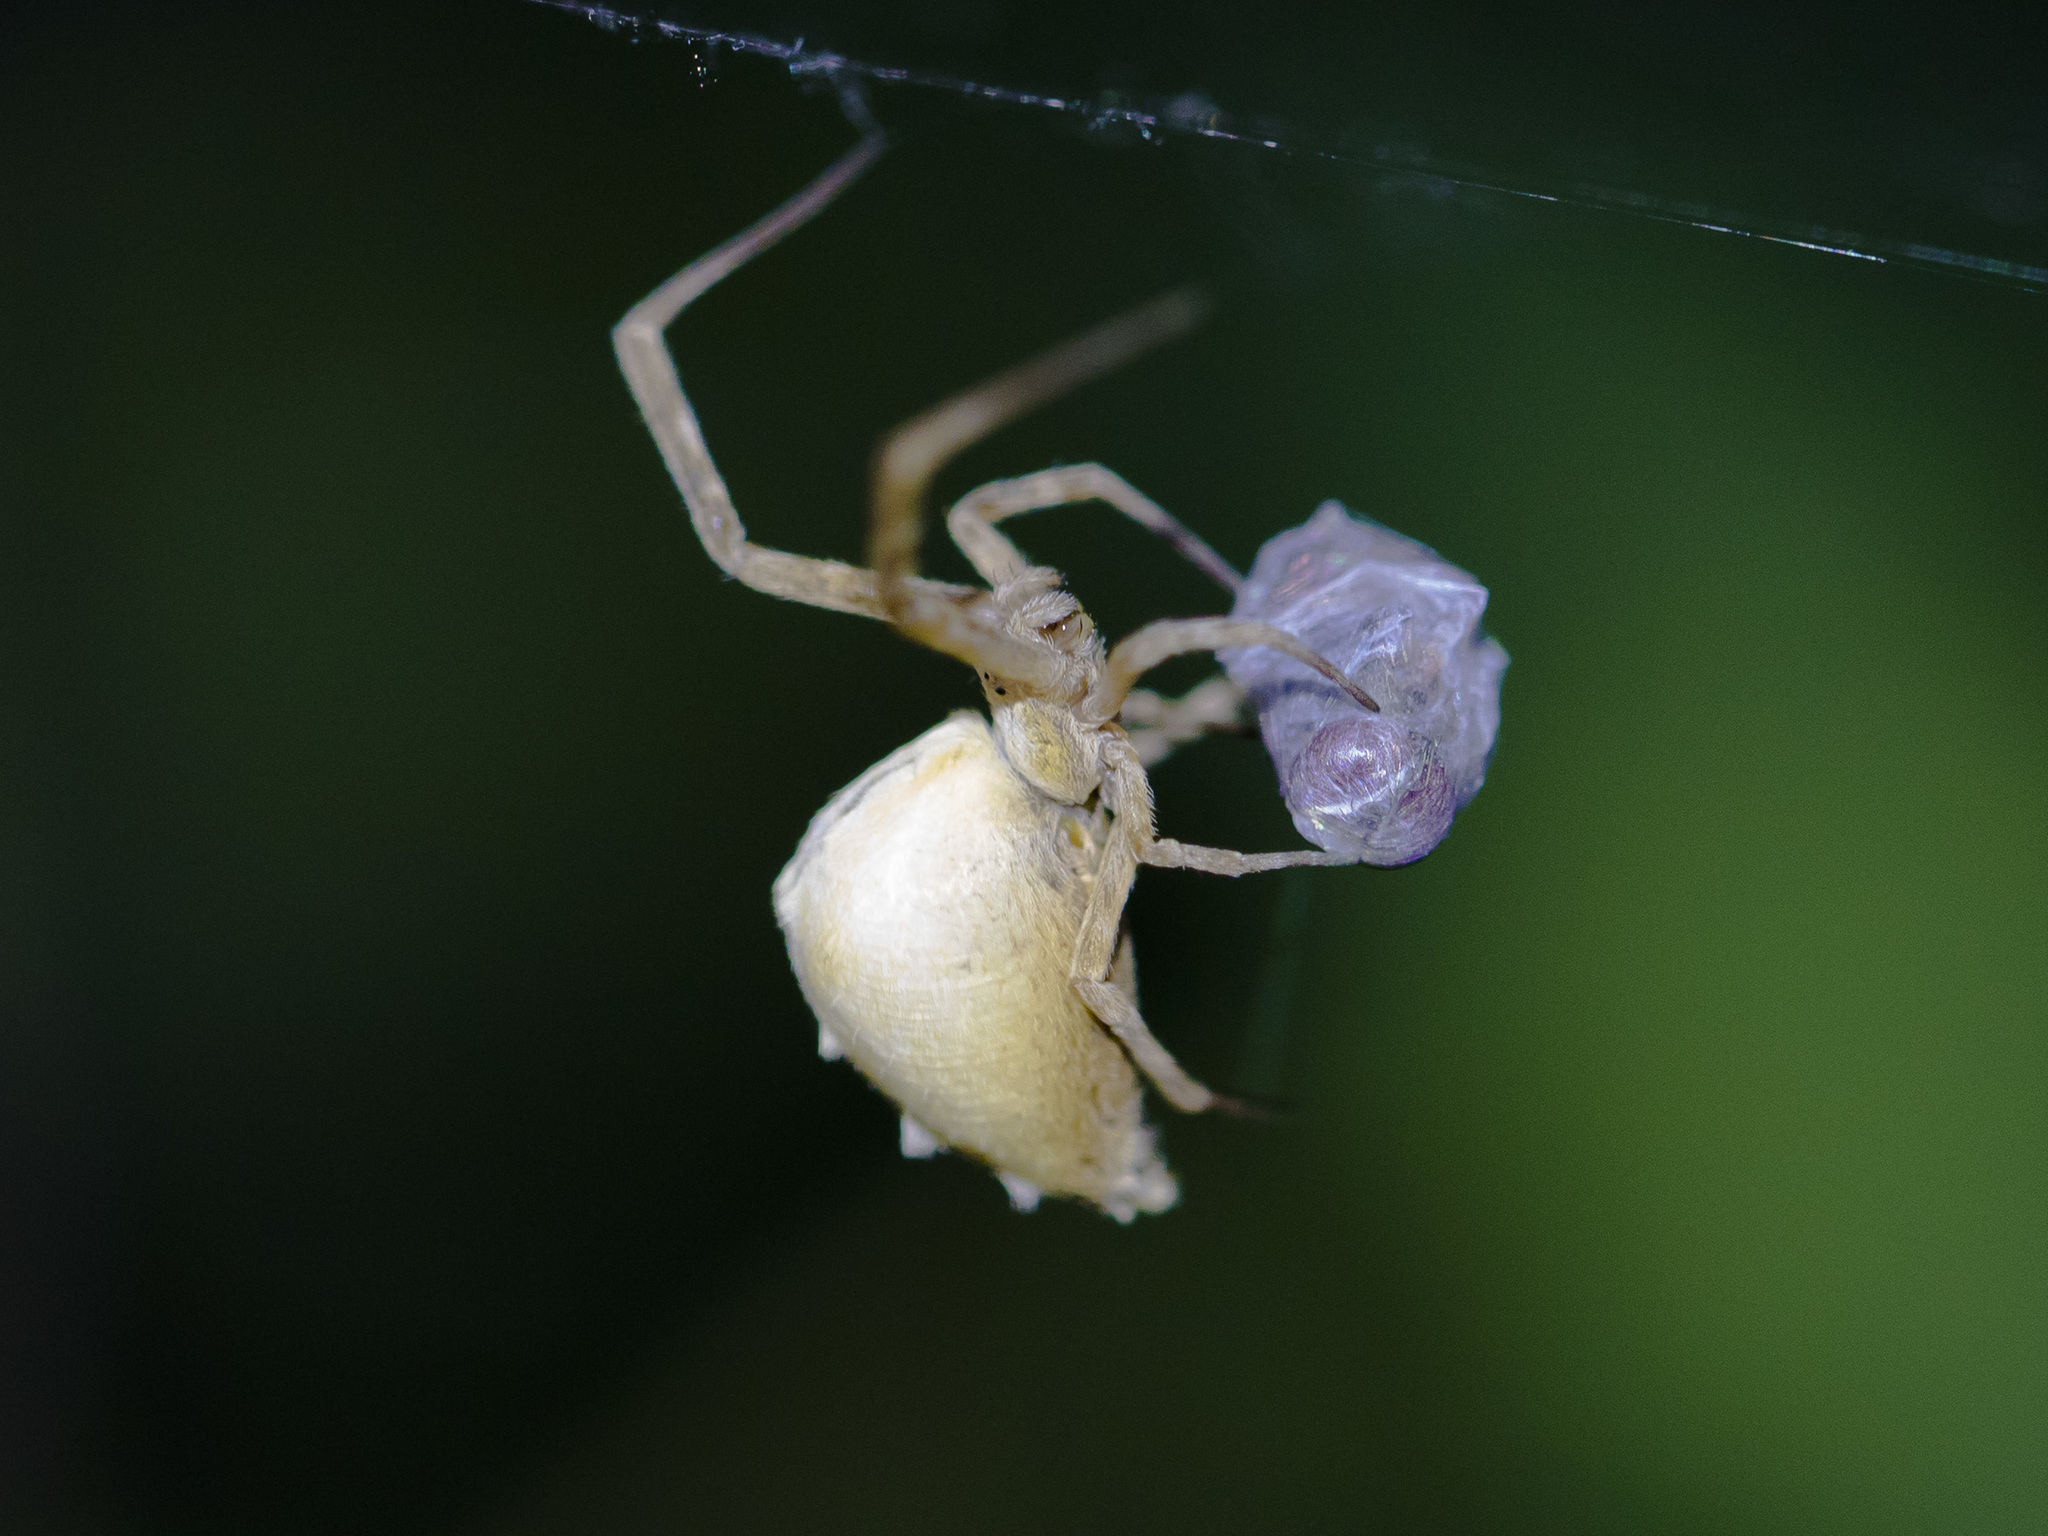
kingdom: Animalia
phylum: Arthropoda
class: Arachnida
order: Araneae
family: Uloboridae
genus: Uloborus
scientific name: Uloborus walckenaerius
